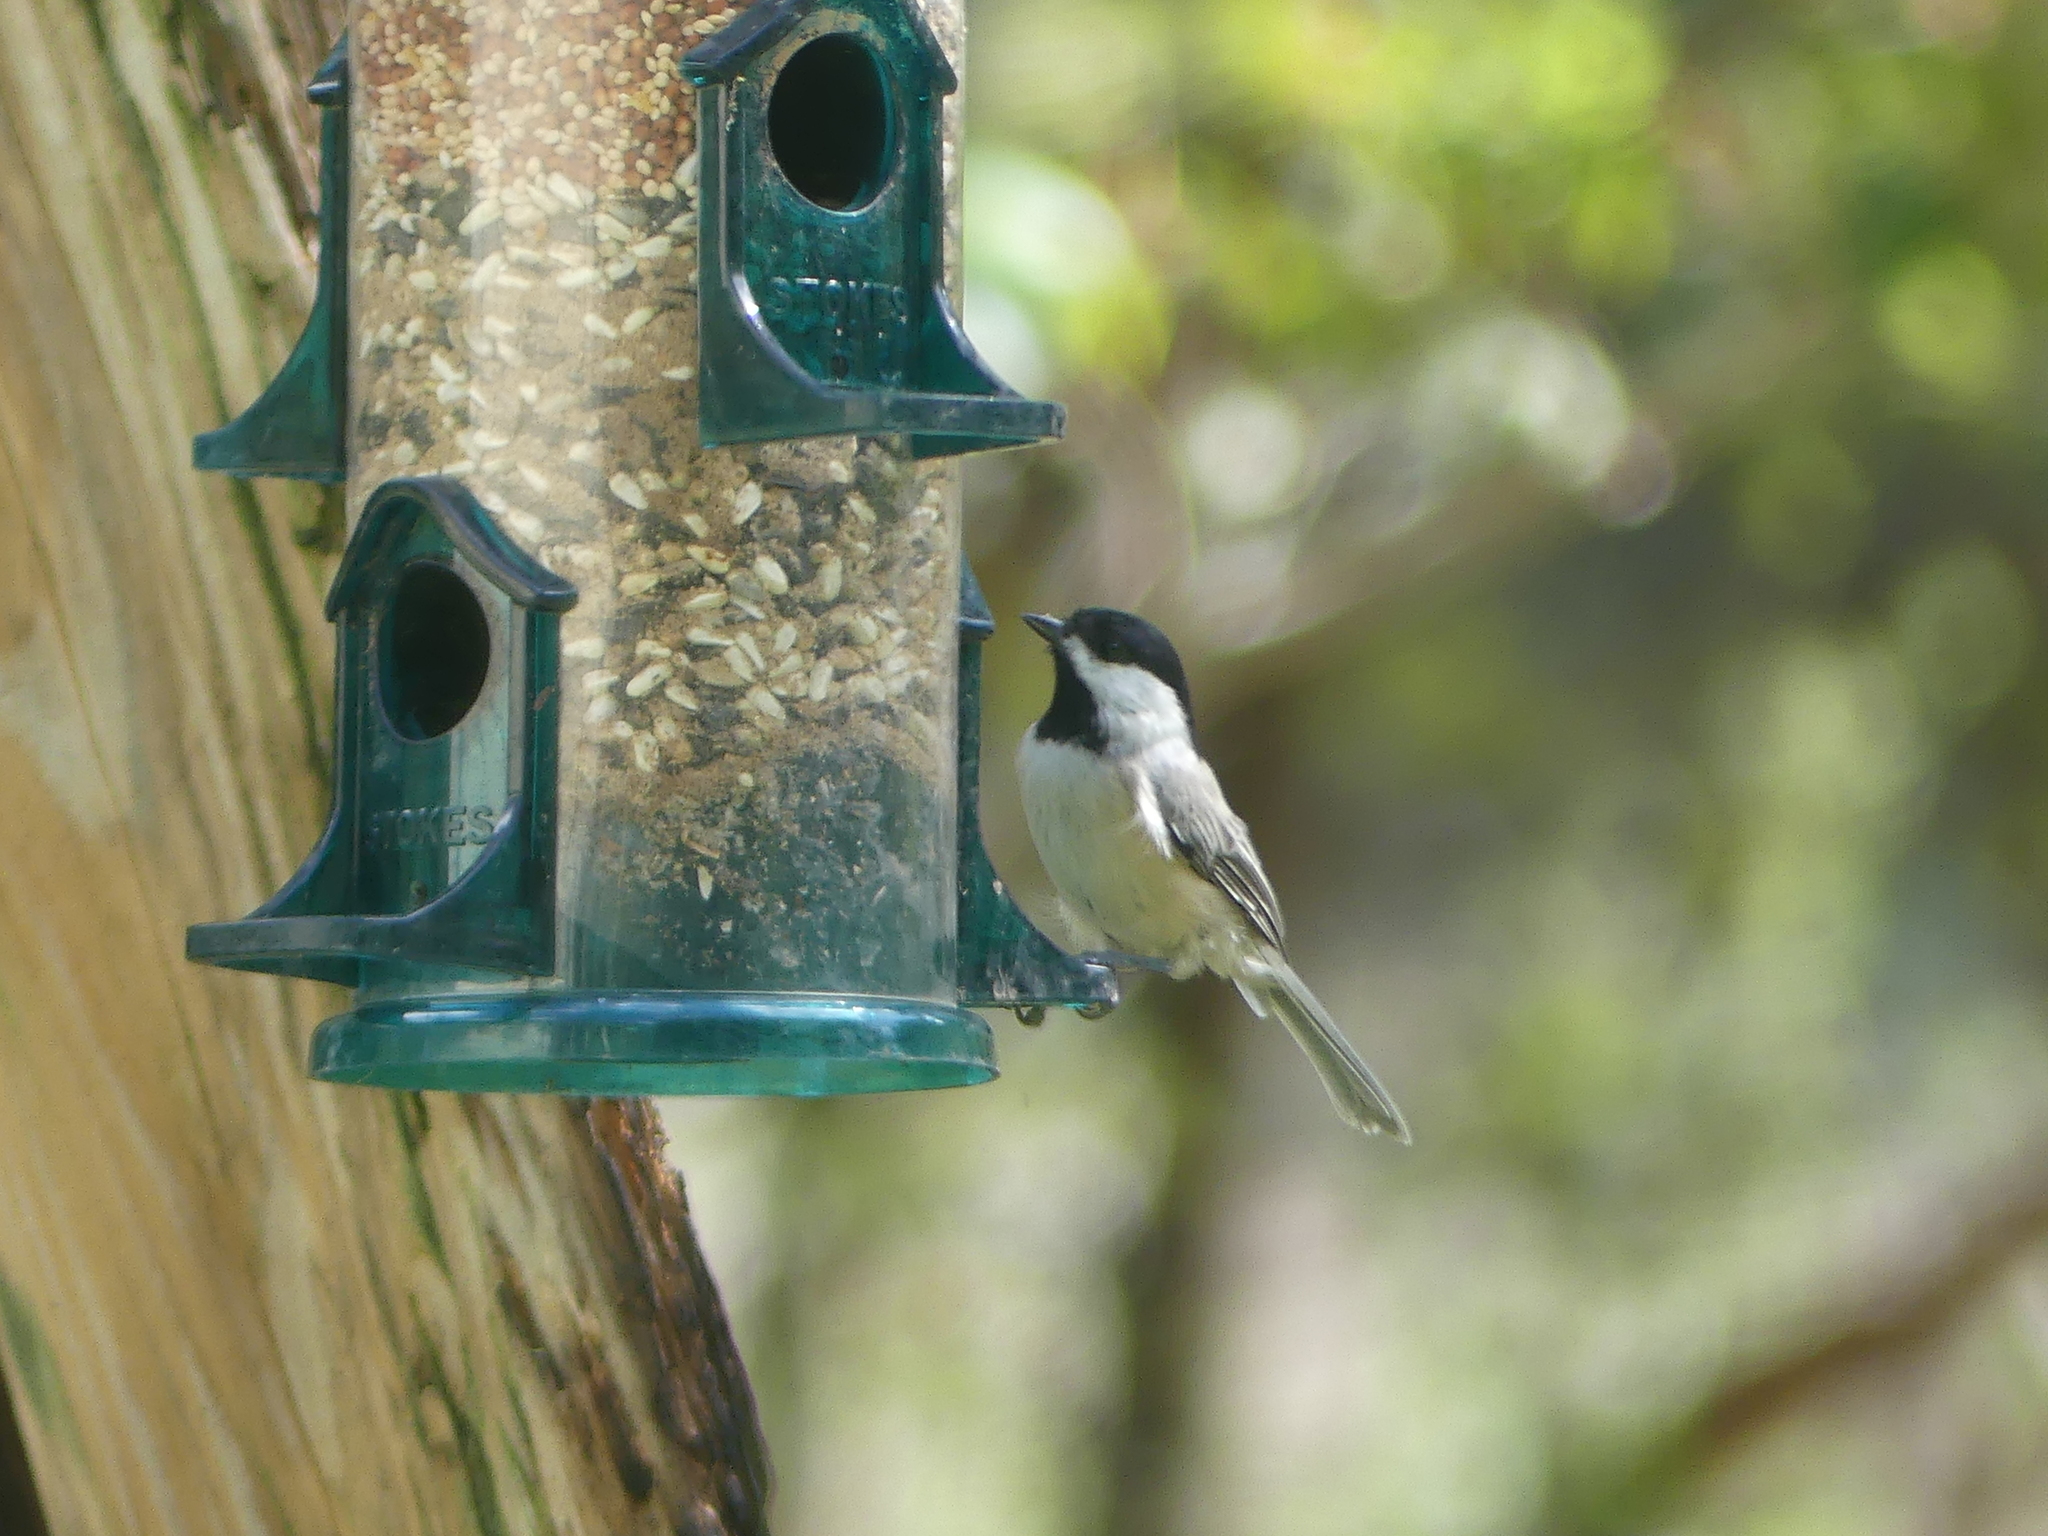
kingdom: Animalia
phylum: Chordata
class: Aves
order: Passeriformes
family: Paridae
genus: Poecile
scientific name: Poecile carolinensis
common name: Carolina chickadee
